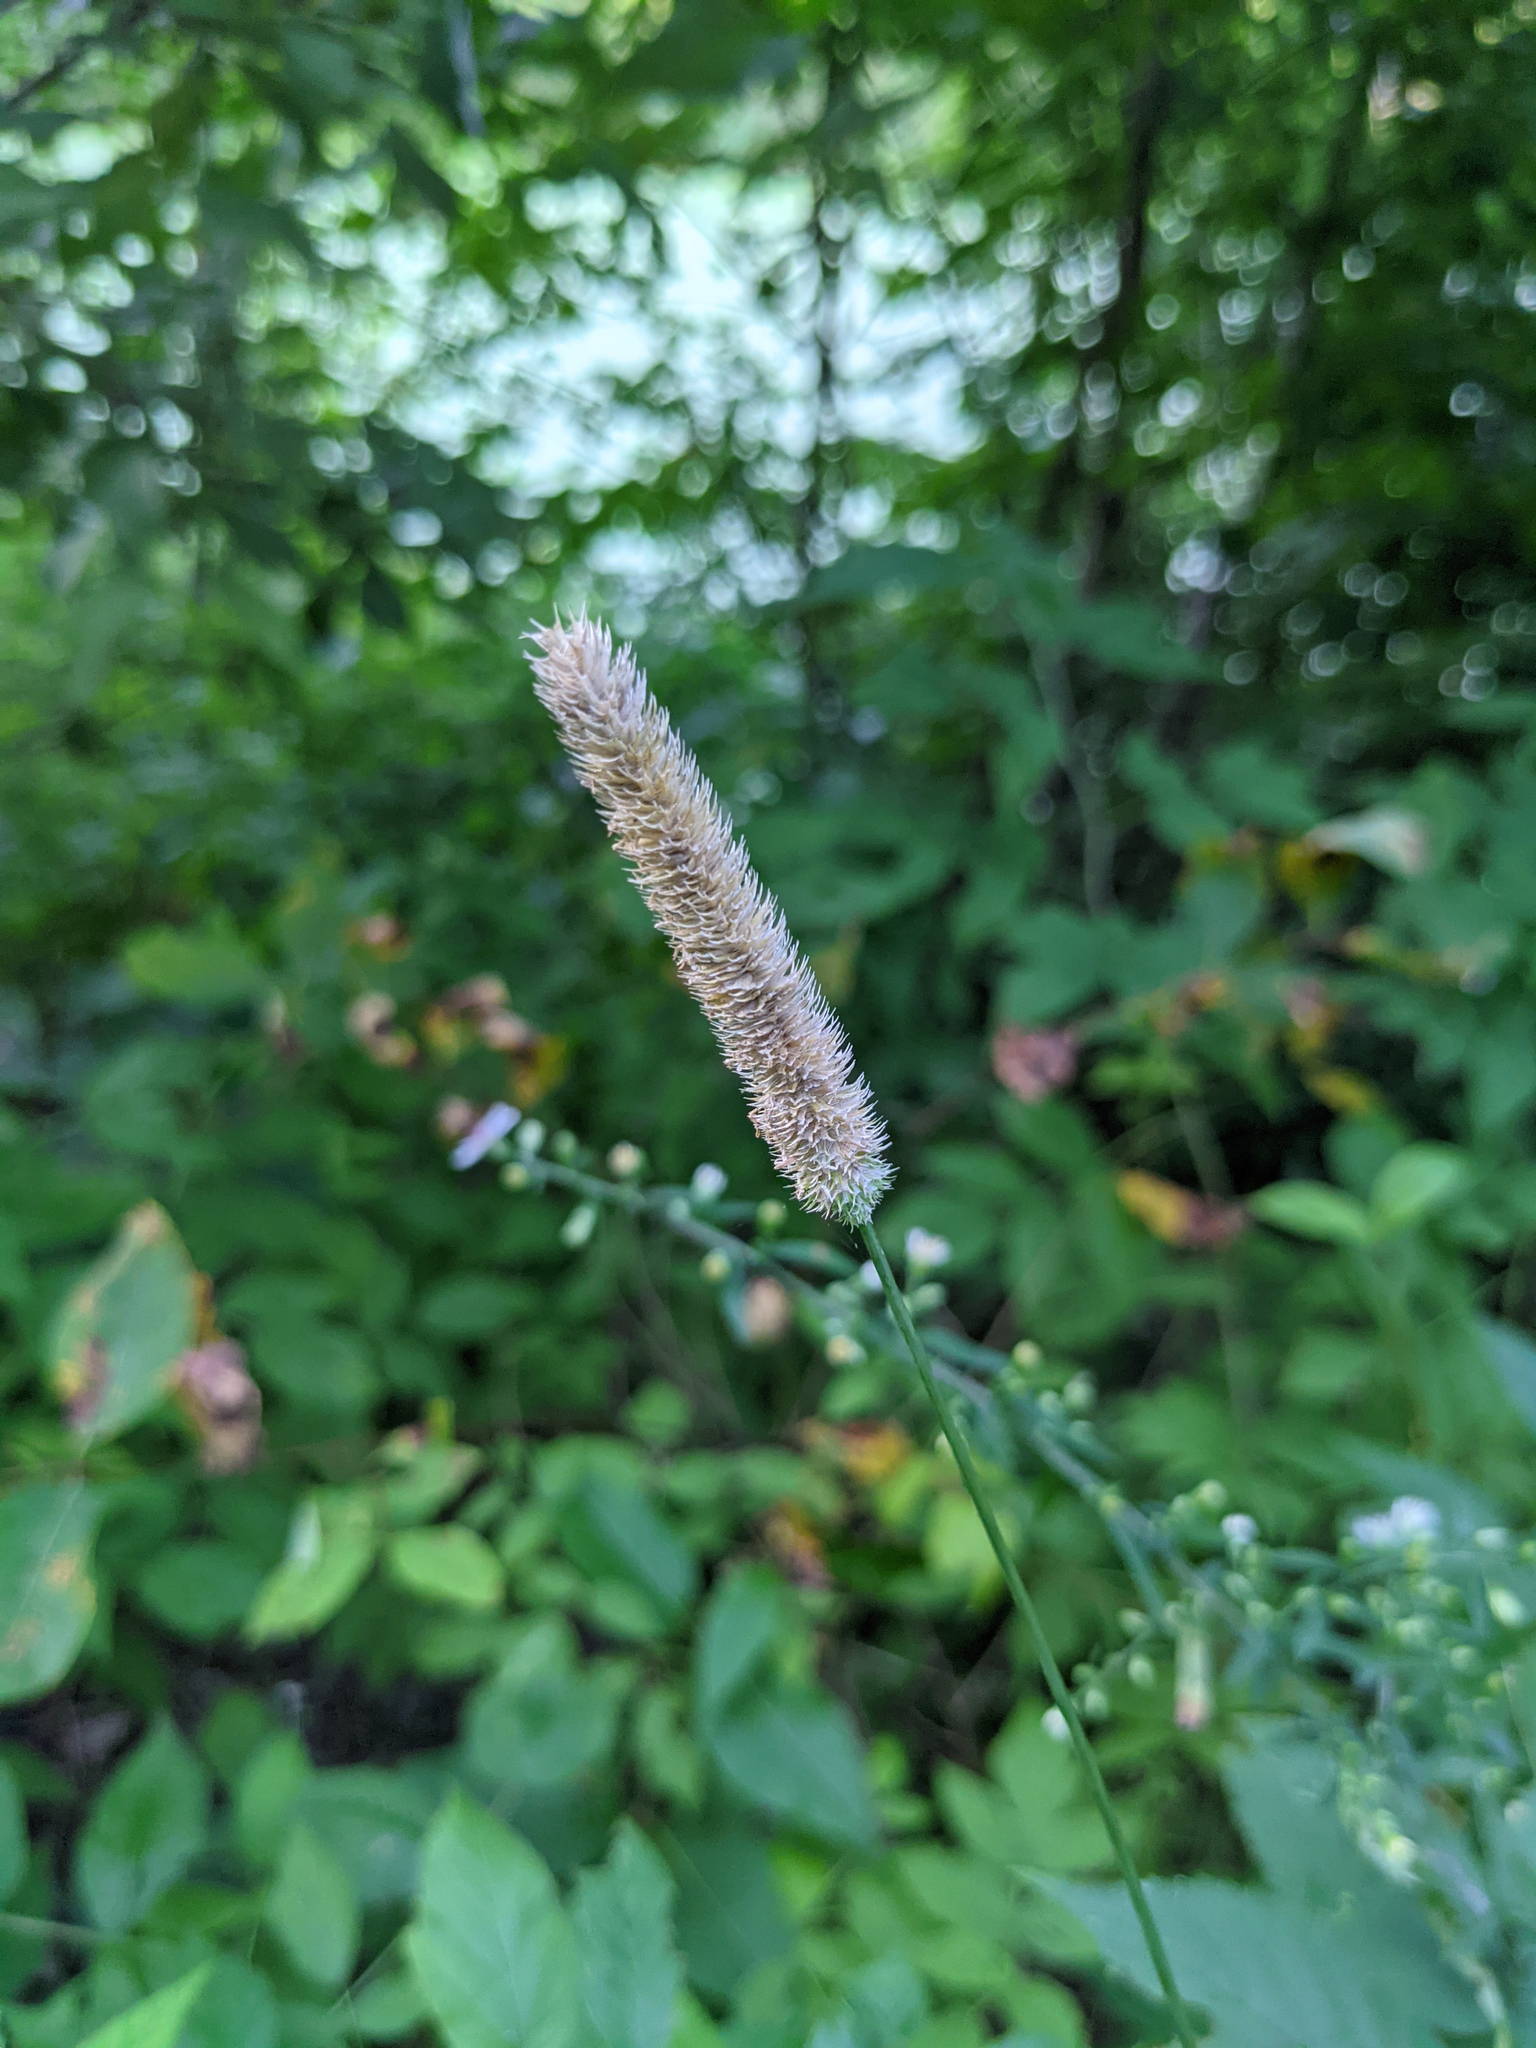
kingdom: Plantae
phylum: Tracheophyta
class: Liliopsida
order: Poales
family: Poaceae
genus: Phleum
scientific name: Phleum pratense
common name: Timothy grass
